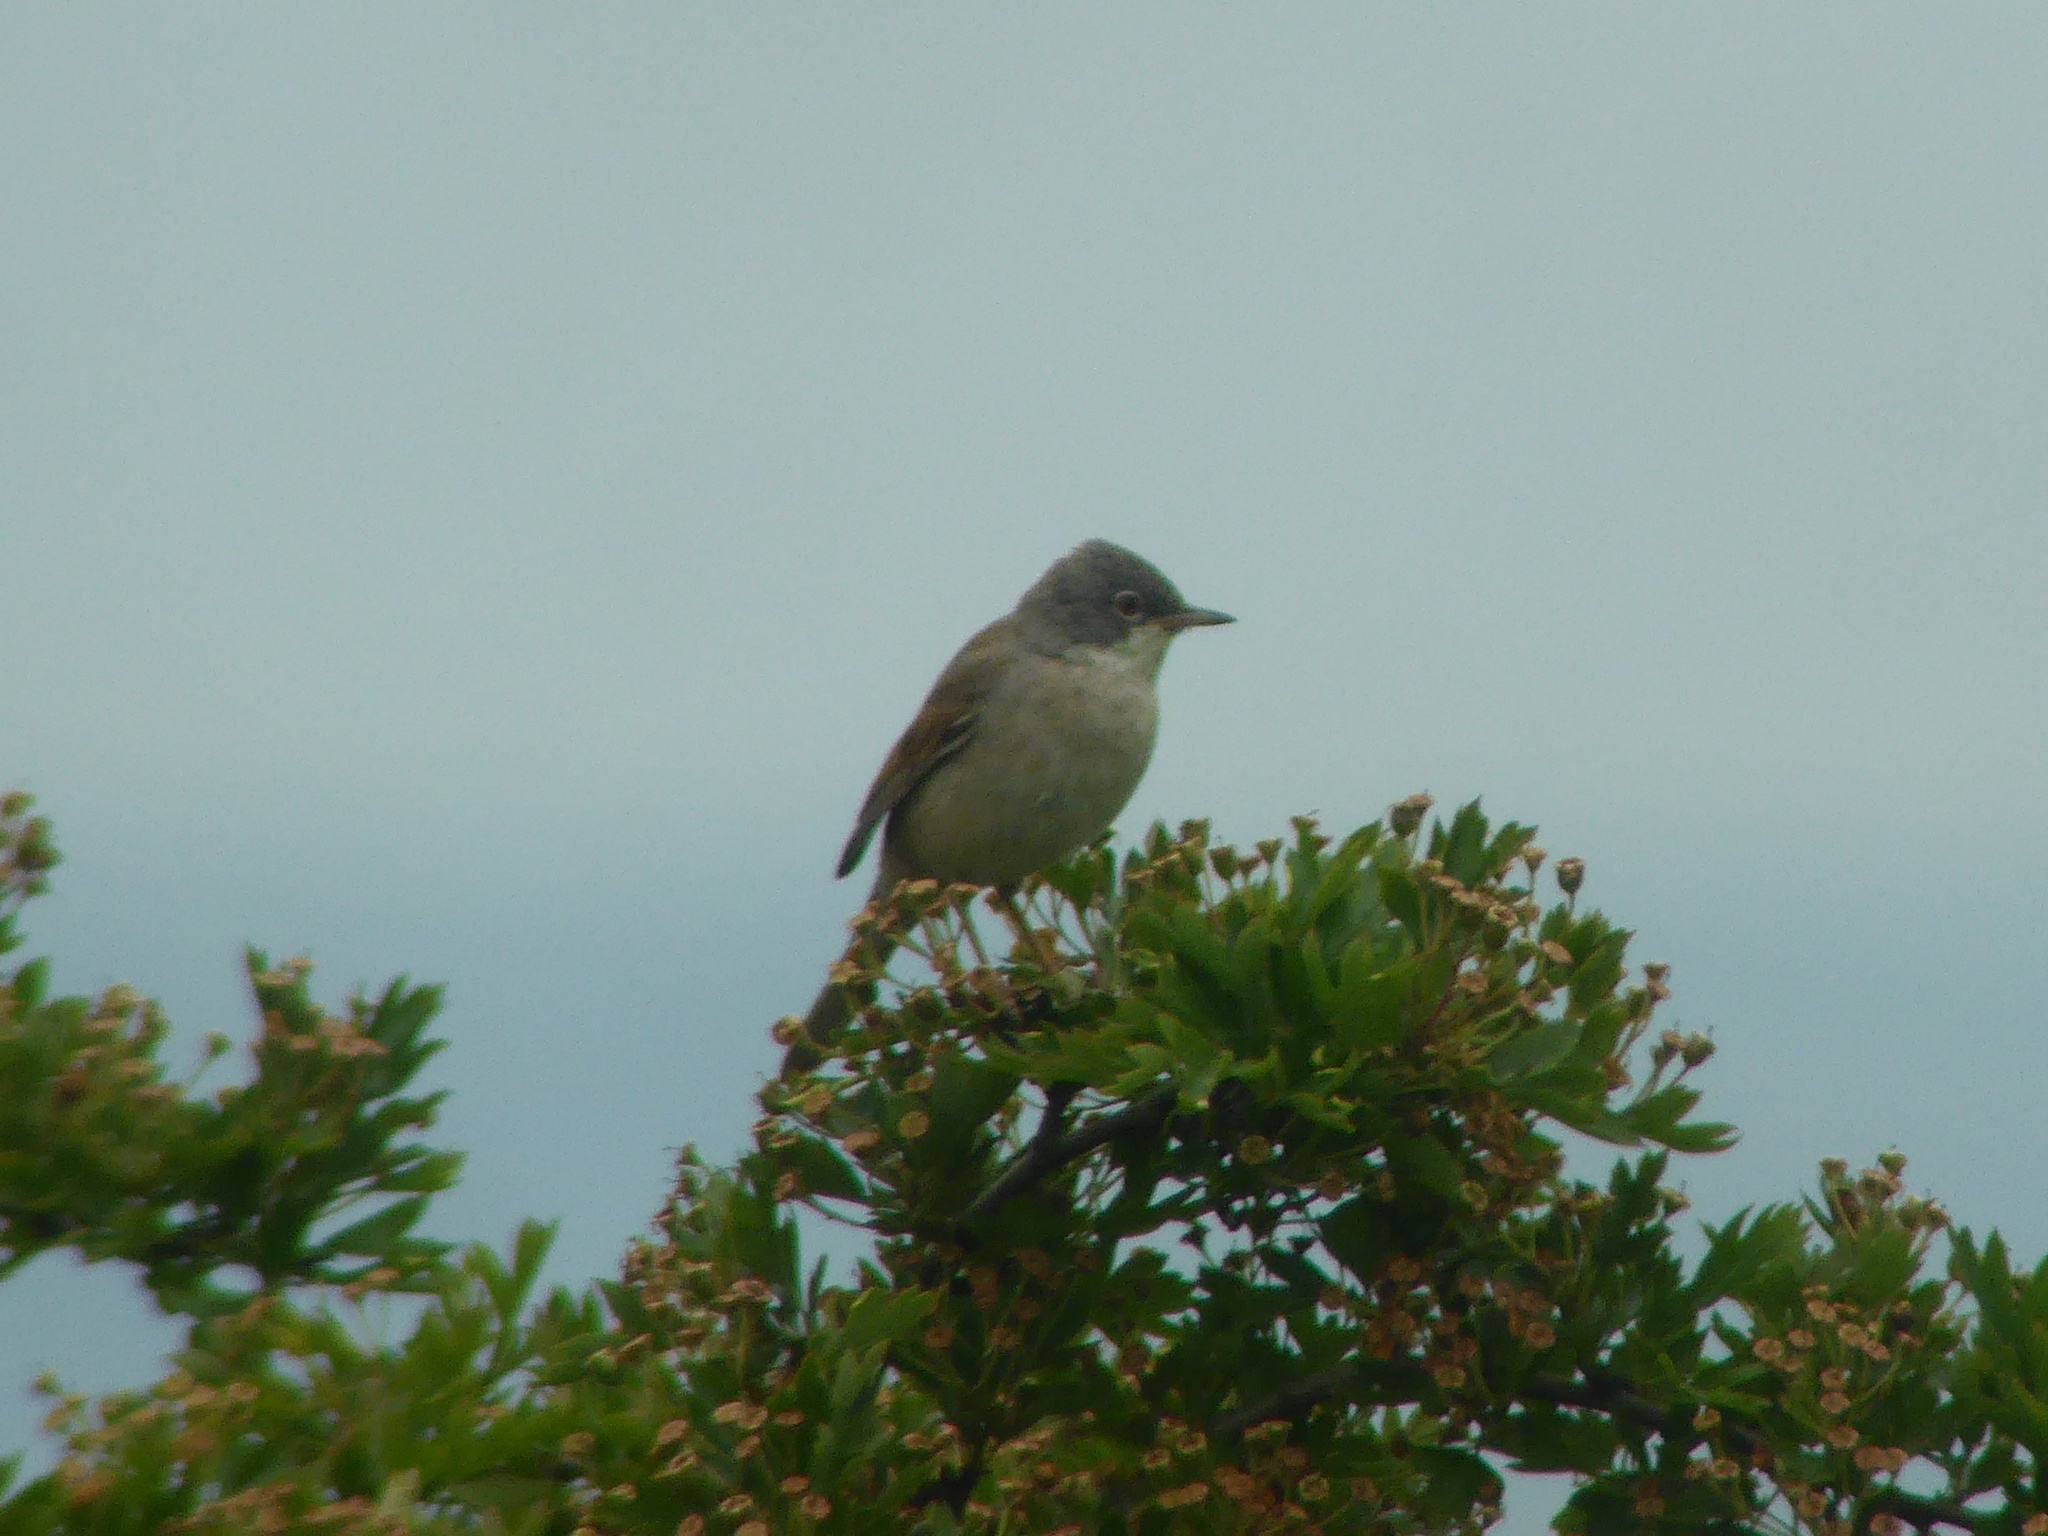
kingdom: Animalia
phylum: Chordata
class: Aves
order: Passeriformes
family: Sylviidae
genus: Sylvia
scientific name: Sylvia communis
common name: Common whitethroat
